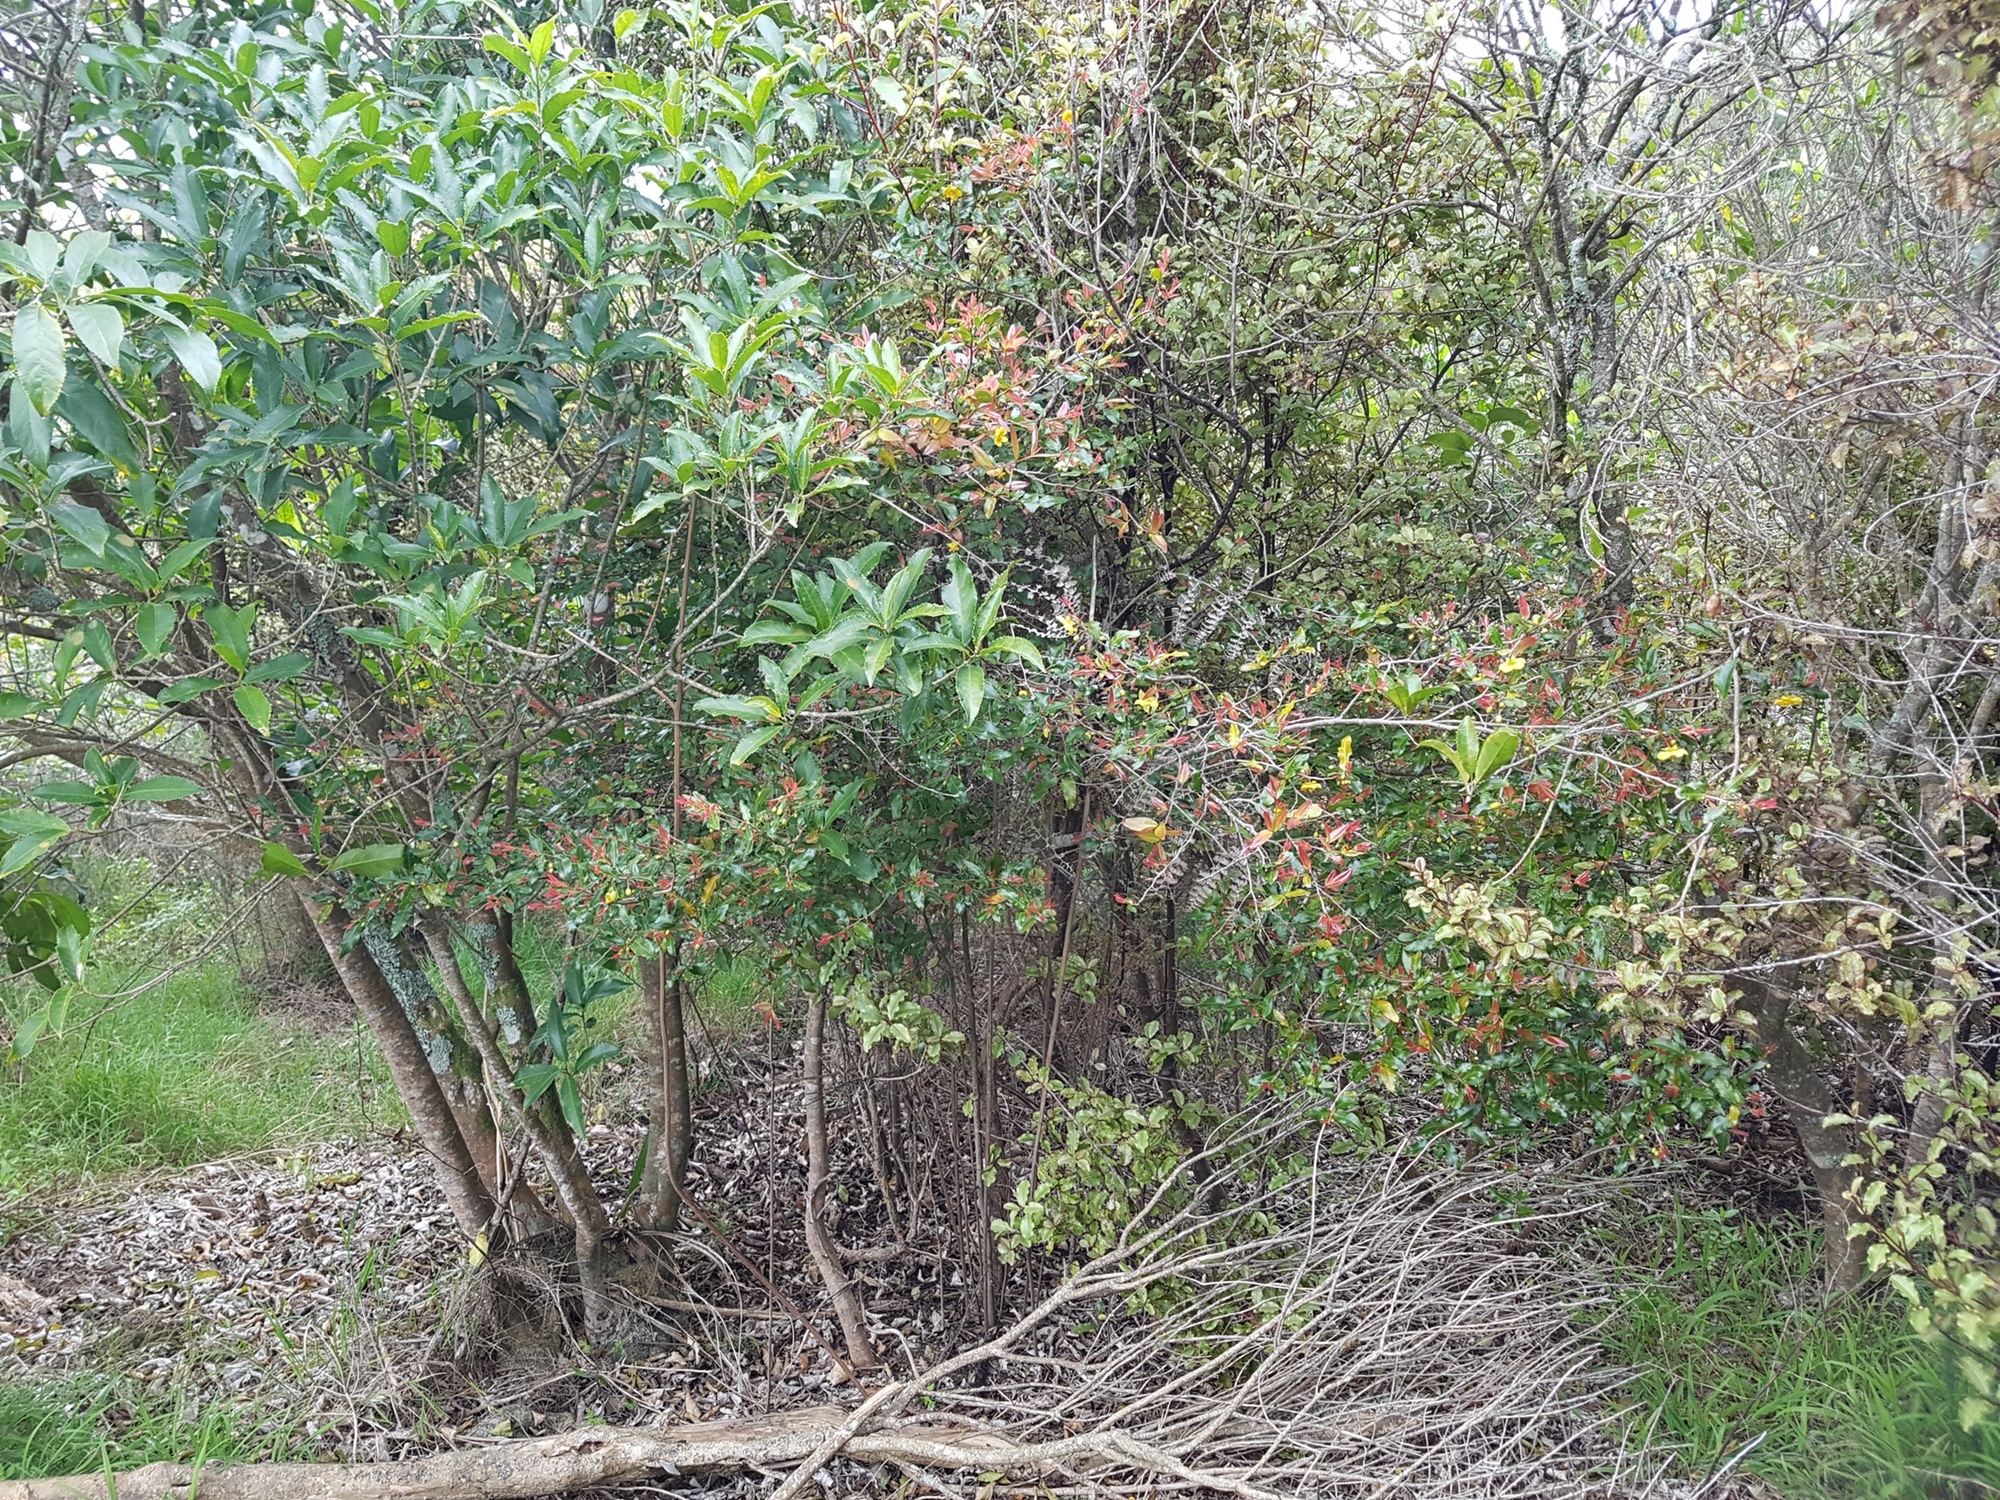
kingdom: Plantae
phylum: Tracheophyta
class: Magnoliopsida
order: Malpighiales
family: Ochnaceae
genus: Ochna
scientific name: Ochna serrulata
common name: Mickey mouse plant
